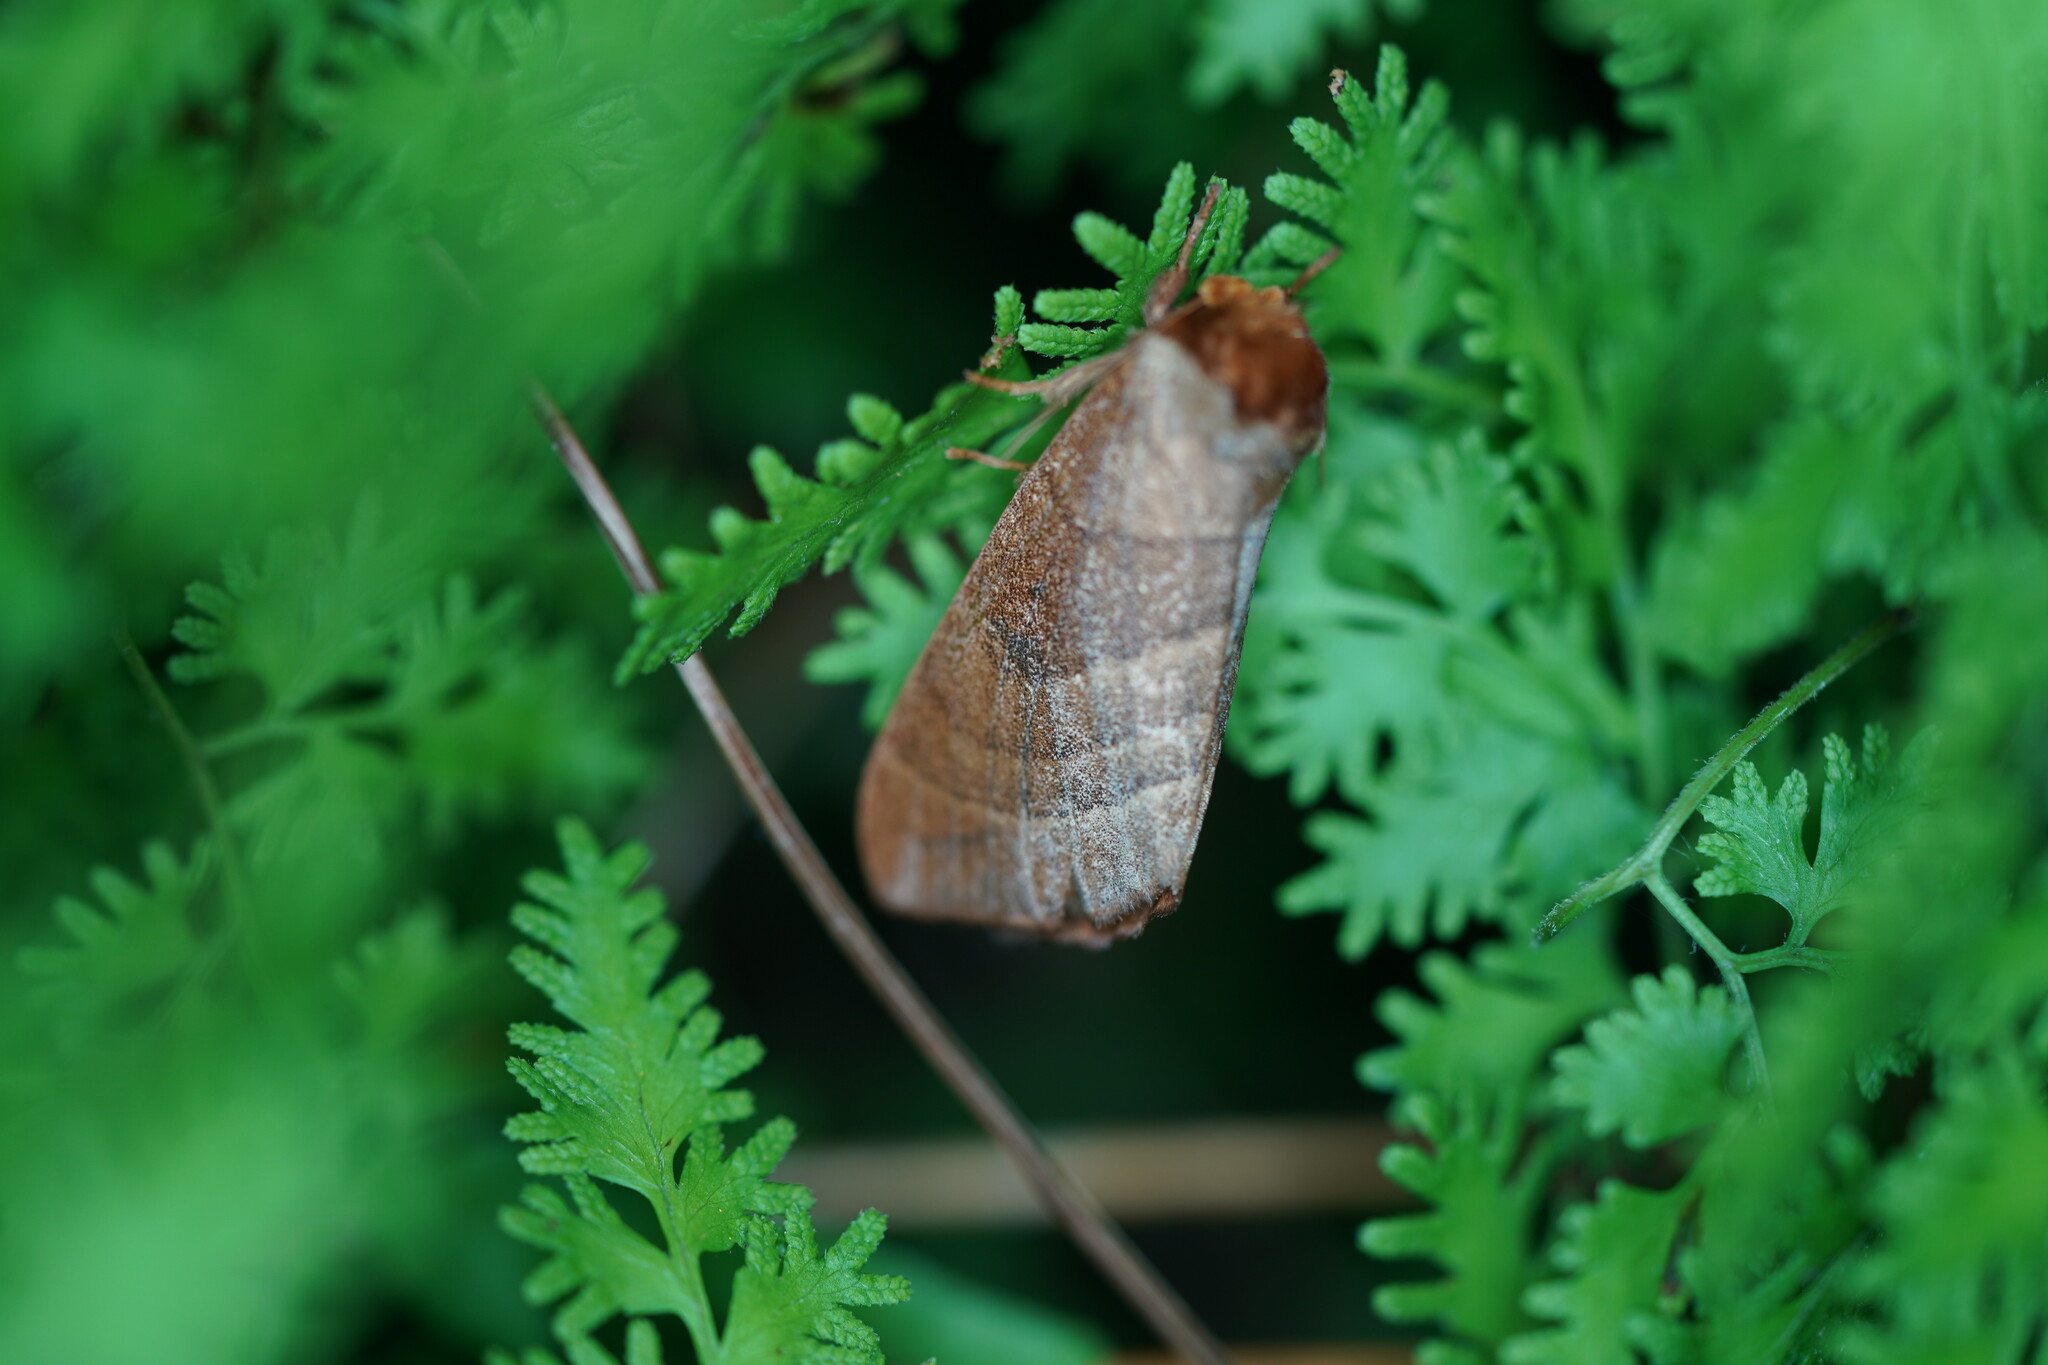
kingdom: Animalia
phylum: Arthropoda
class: Insecta
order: Lepidoptera
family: Notodontidae
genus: Datana
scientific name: Datana contracta
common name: Contracted datana
